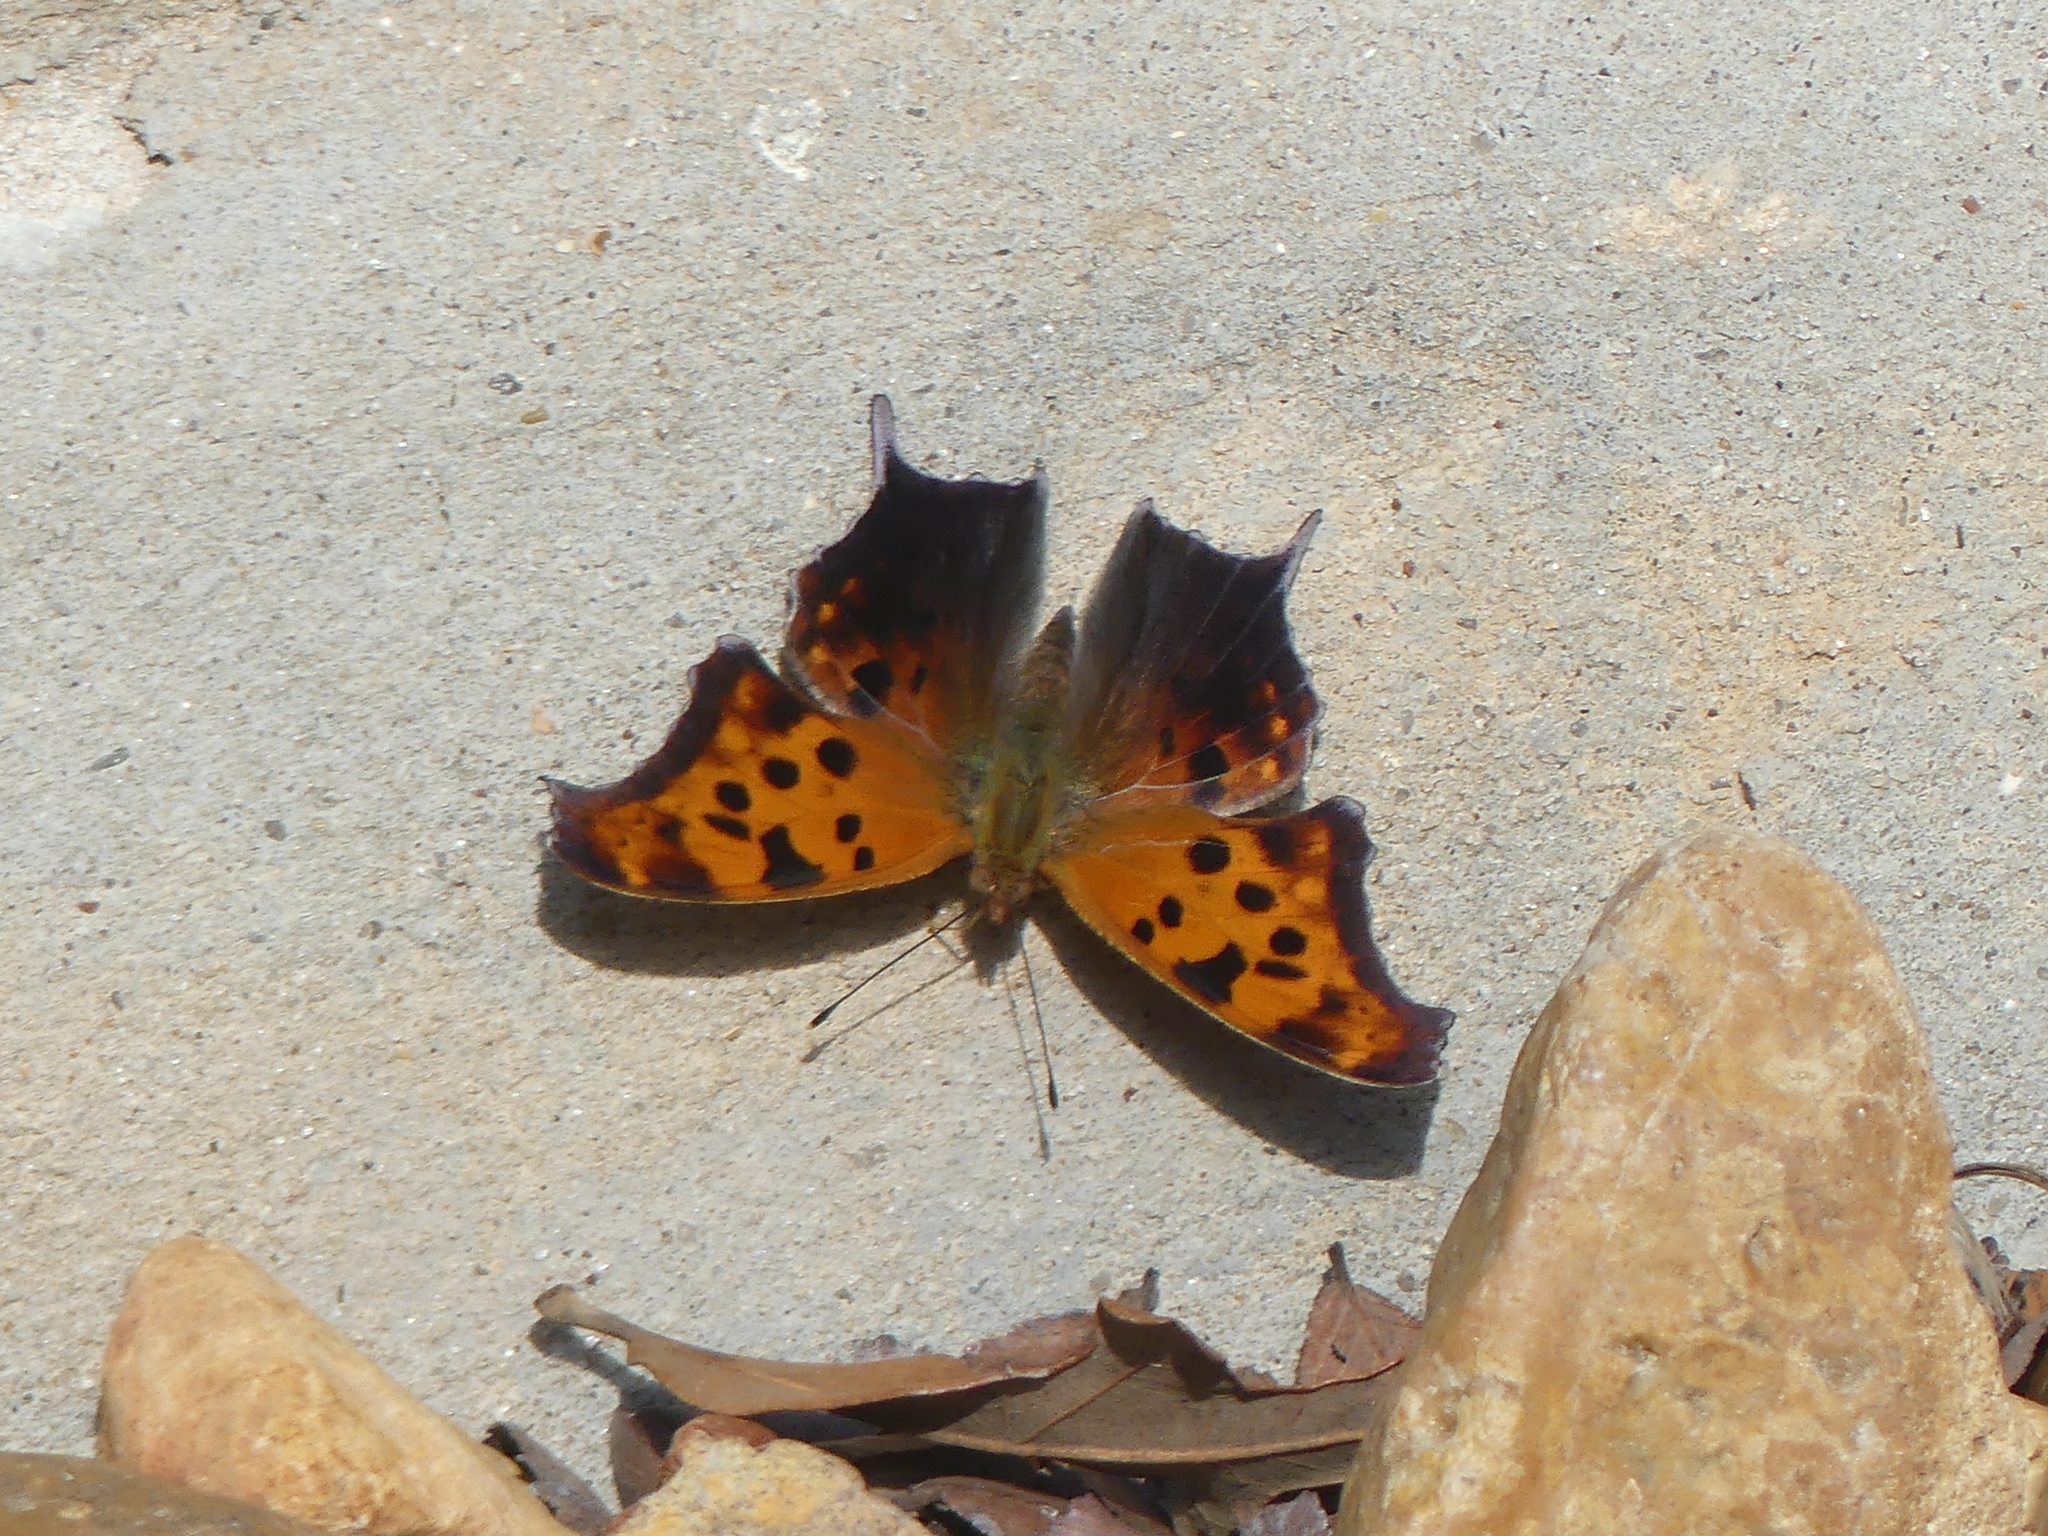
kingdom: Animalia
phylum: Arthropoda
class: Insecta
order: Lepidoptera
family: Nymphalidae
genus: Polygonia
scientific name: Polygonia interrogationis
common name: Question mark
